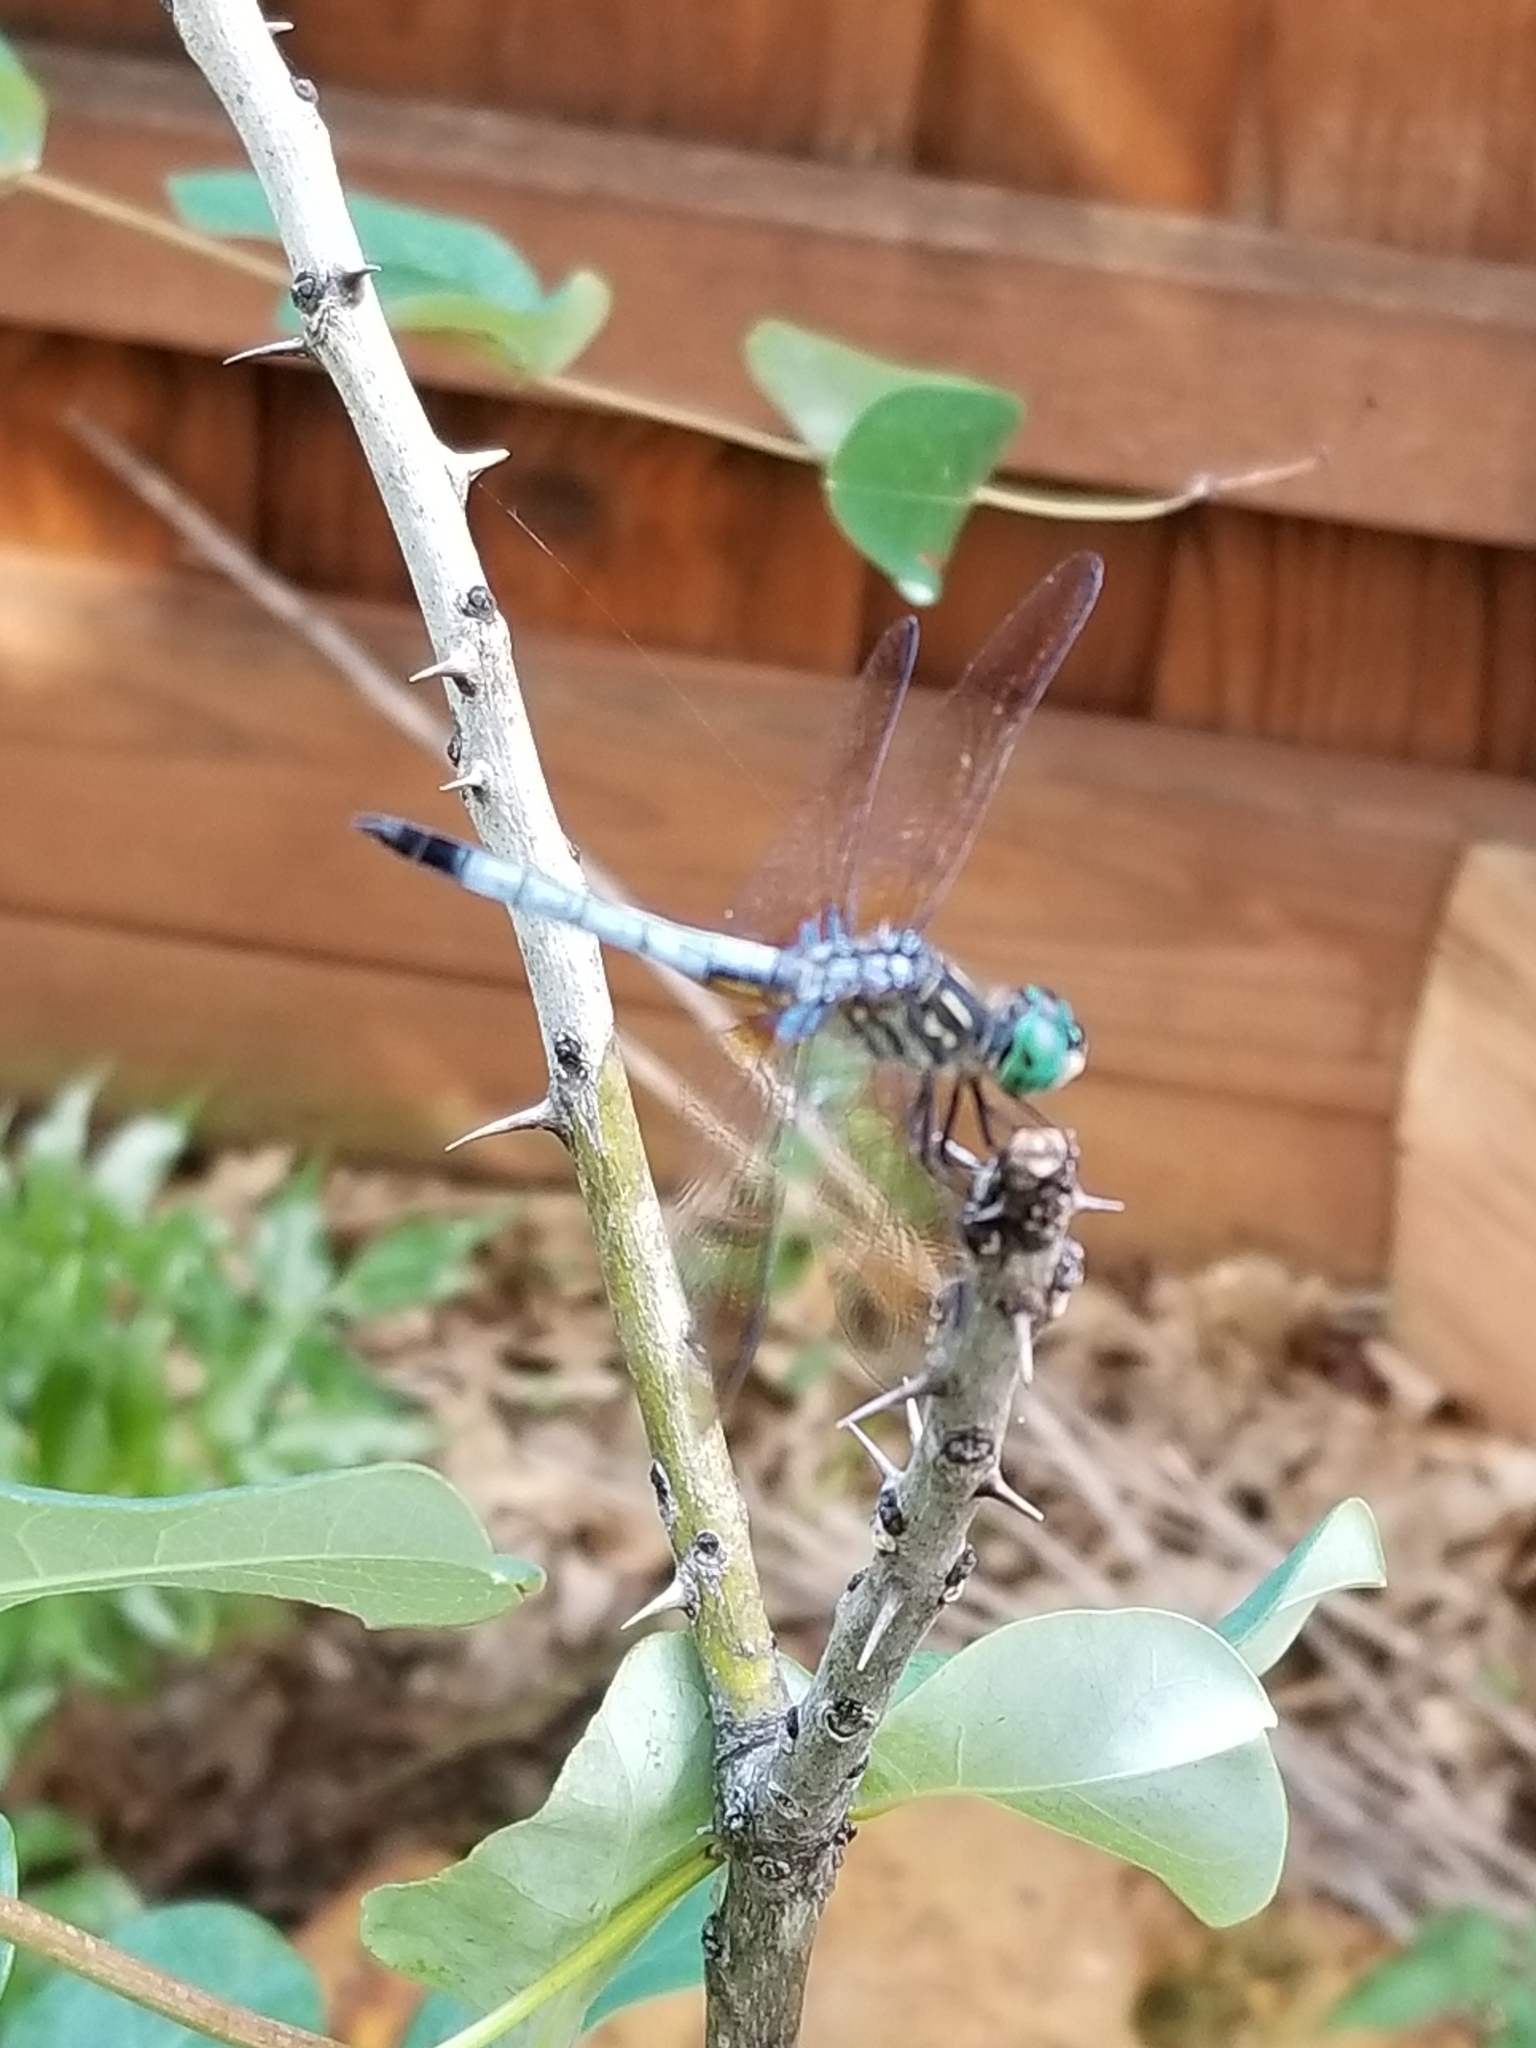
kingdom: Animalia
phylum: Arthropoda
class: Insecta
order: Odonata
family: Libellulidae
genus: Pachydiplax
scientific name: Pachydiplax longipennis
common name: Blue dasher
